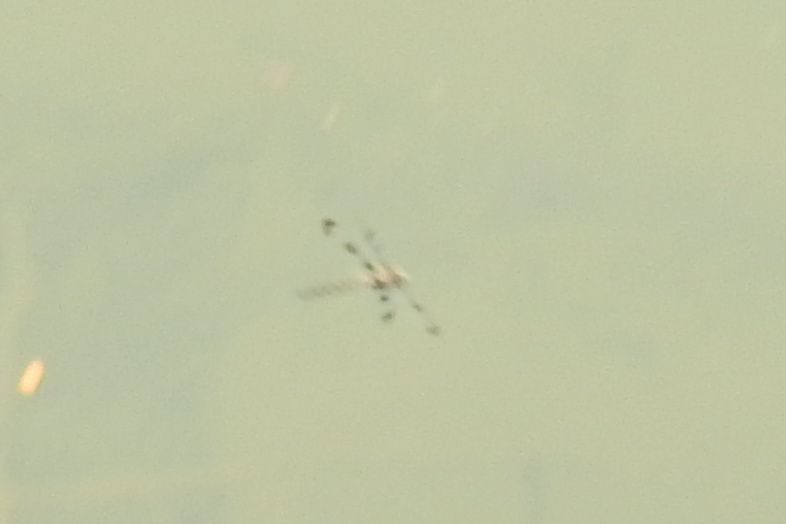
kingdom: Animalia
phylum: Arthropoda
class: Insecta
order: Odonata
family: Corduliidae
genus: Epitheca
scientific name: Epitheca princeps
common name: Prince baskettail
